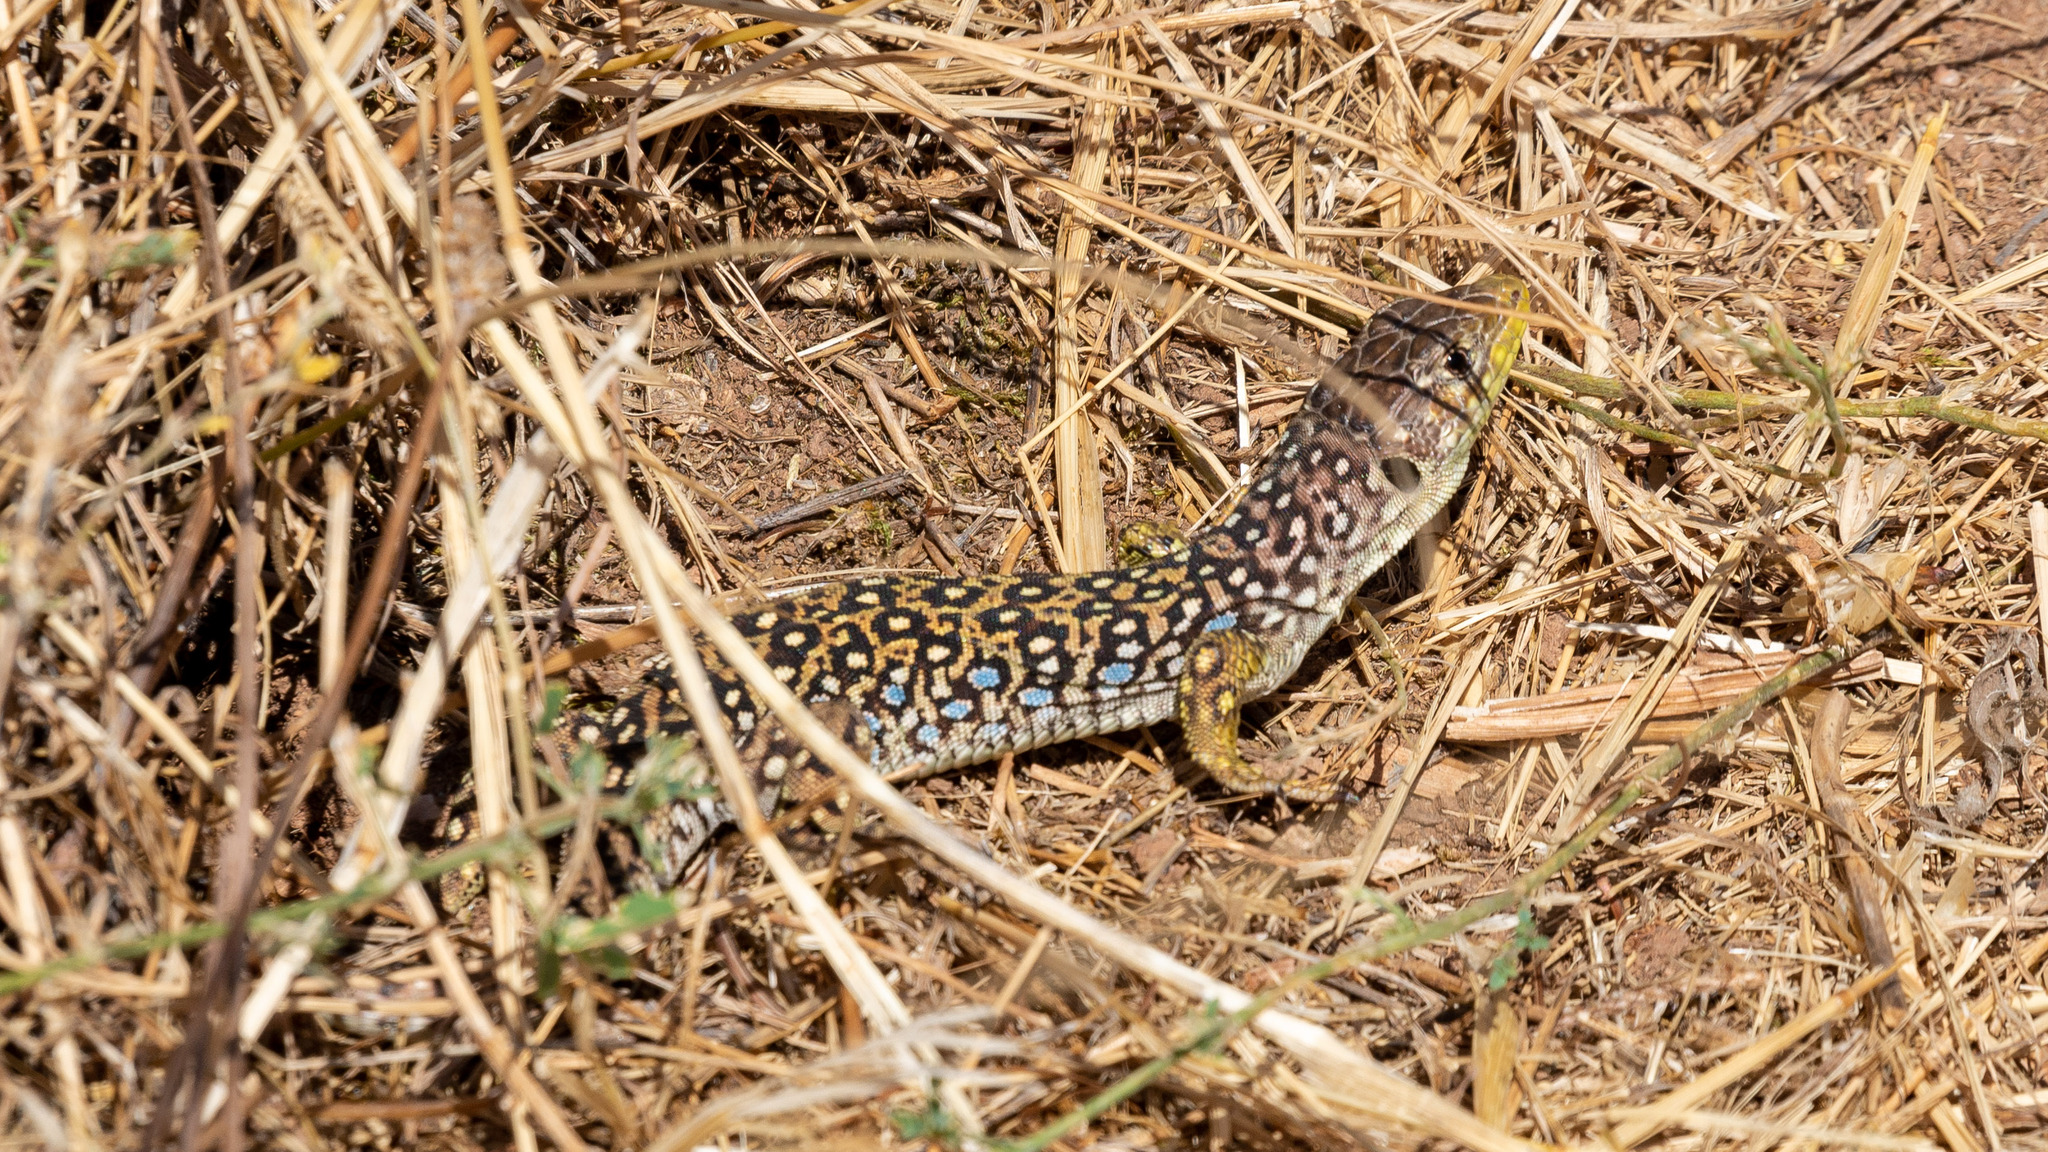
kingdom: Animalia
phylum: Chordata
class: Squamata
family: Lacertidae
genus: Timon
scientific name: Timon lepidus
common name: Ocellated lizard
